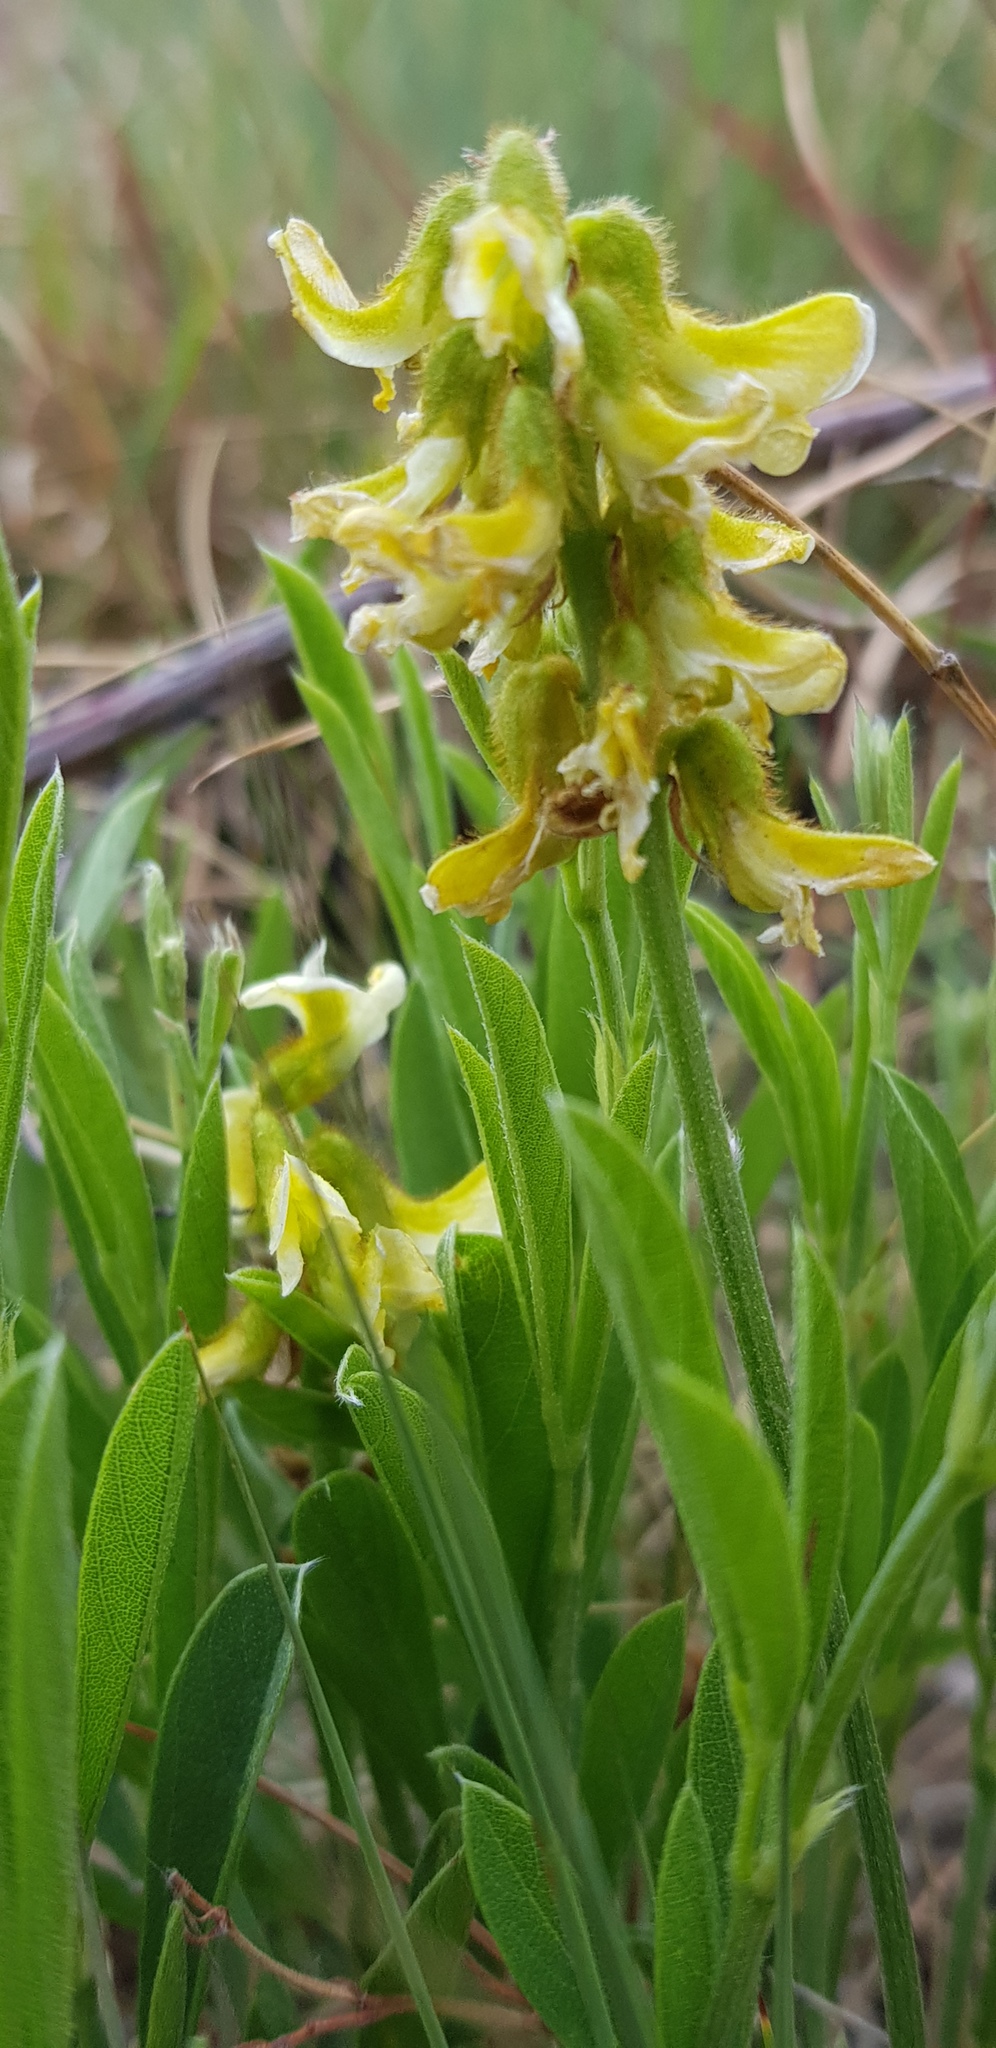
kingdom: Plantae
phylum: Tracheophyta
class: Magnoliopsida
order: Fabales
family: Fabaceae
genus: Eriosema
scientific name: Eriosema kraussianum
